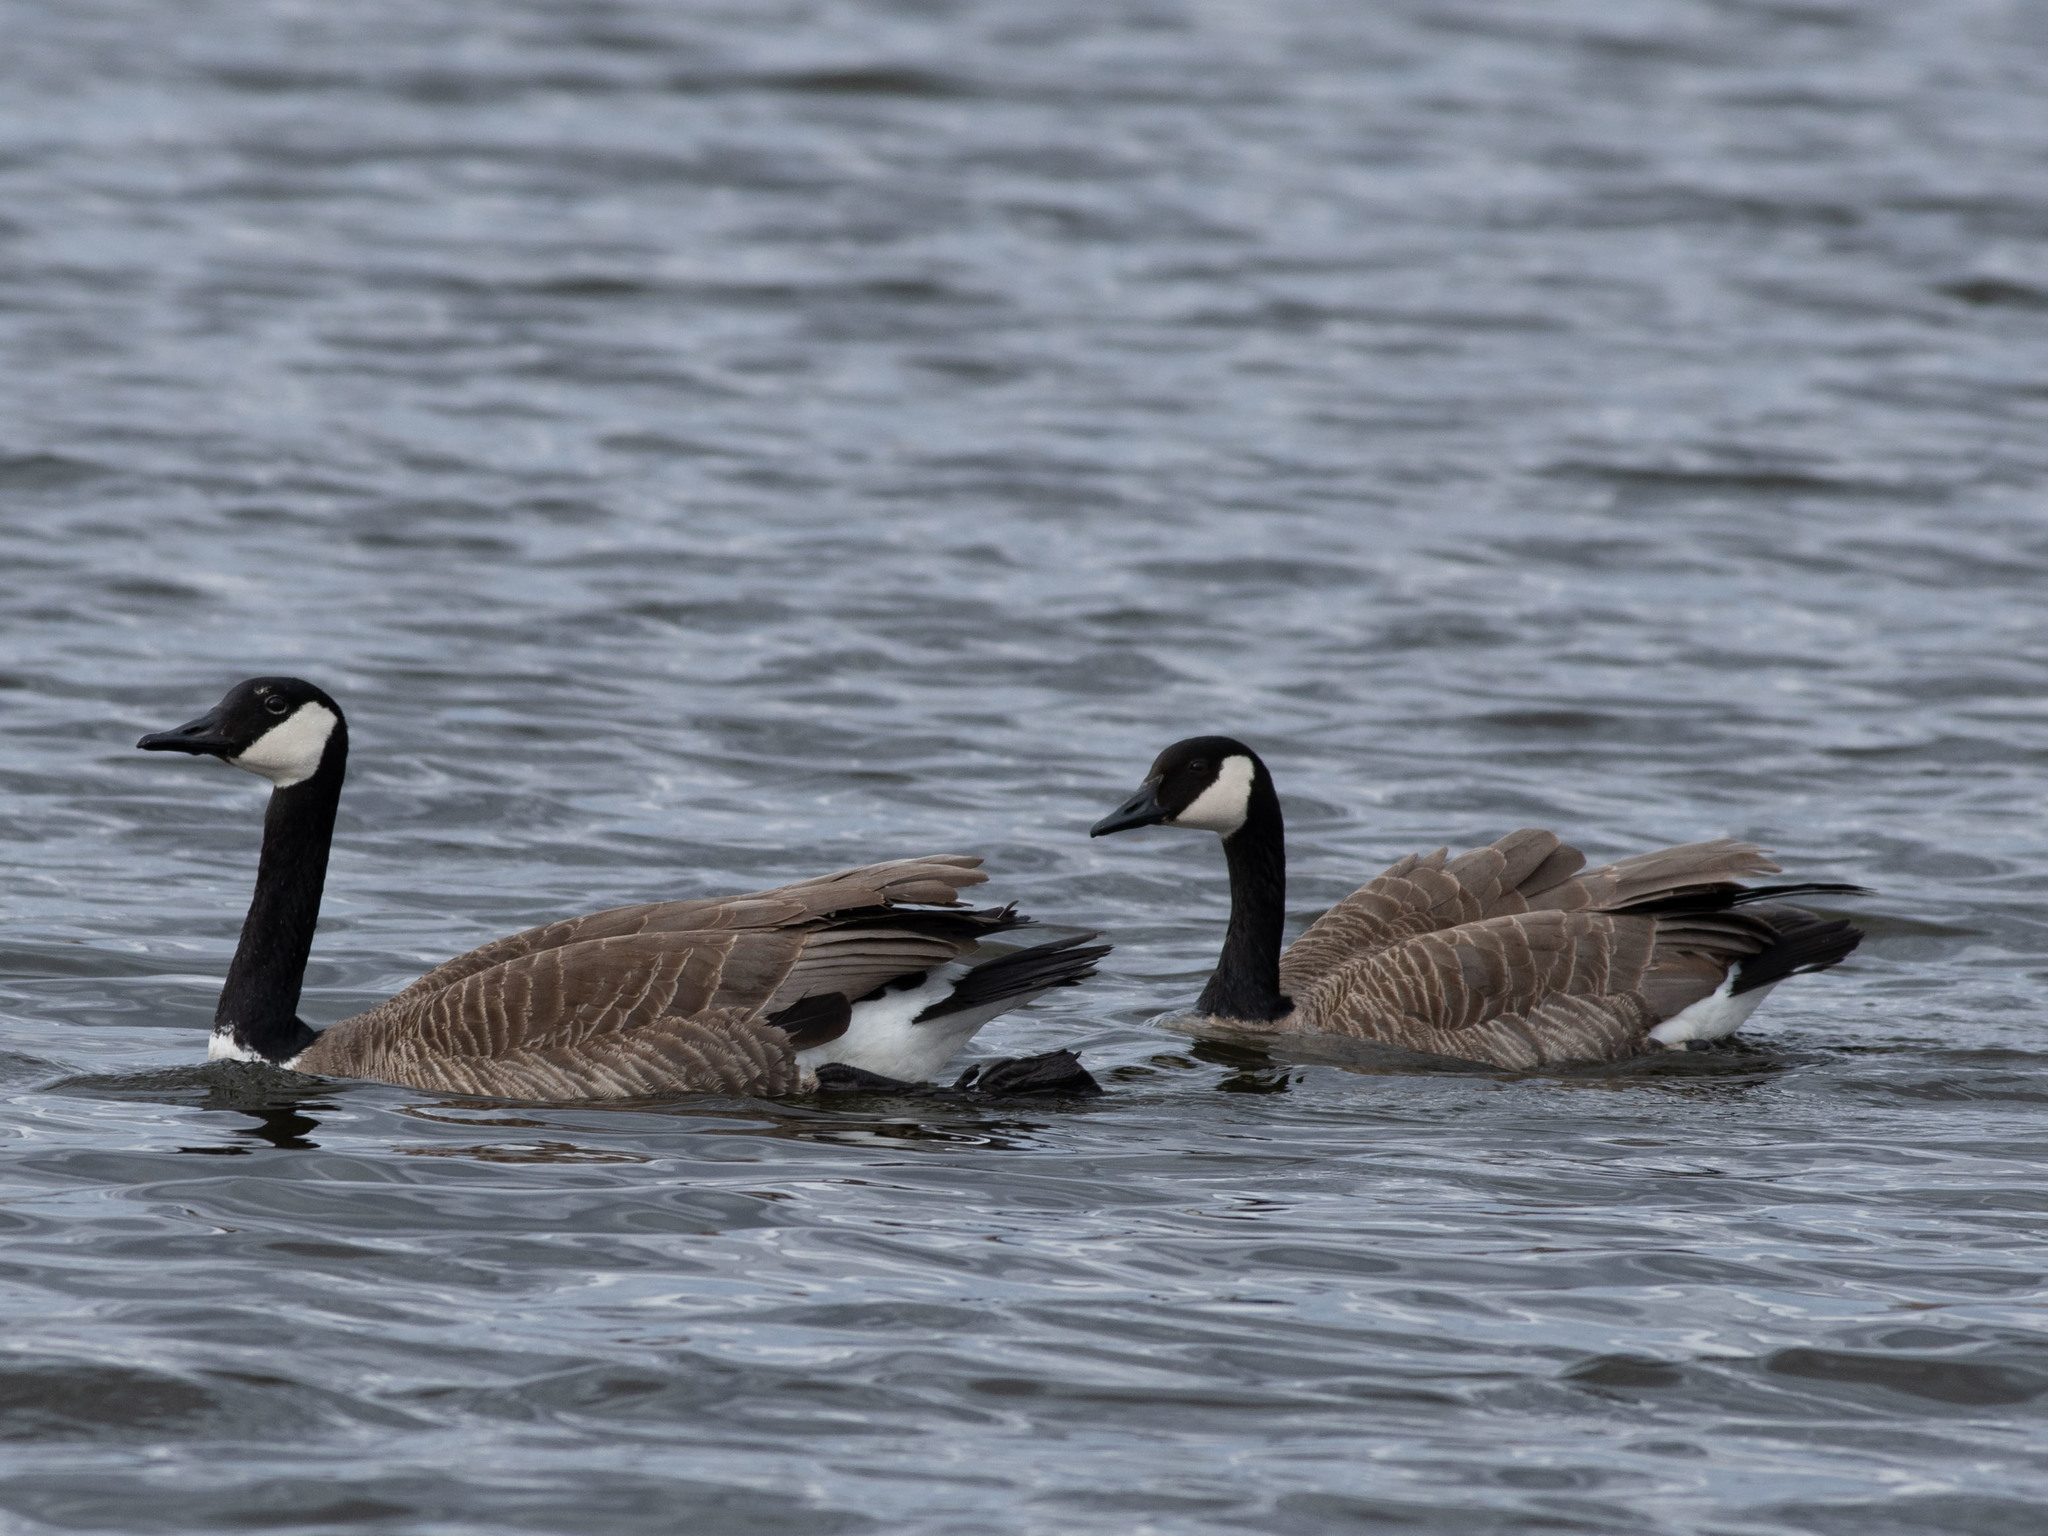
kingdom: Animalia
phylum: Chordata
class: Aves
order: Anseriformes
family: Anatidae
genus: Branta
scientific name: Branta canadensis
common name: Canada goose
